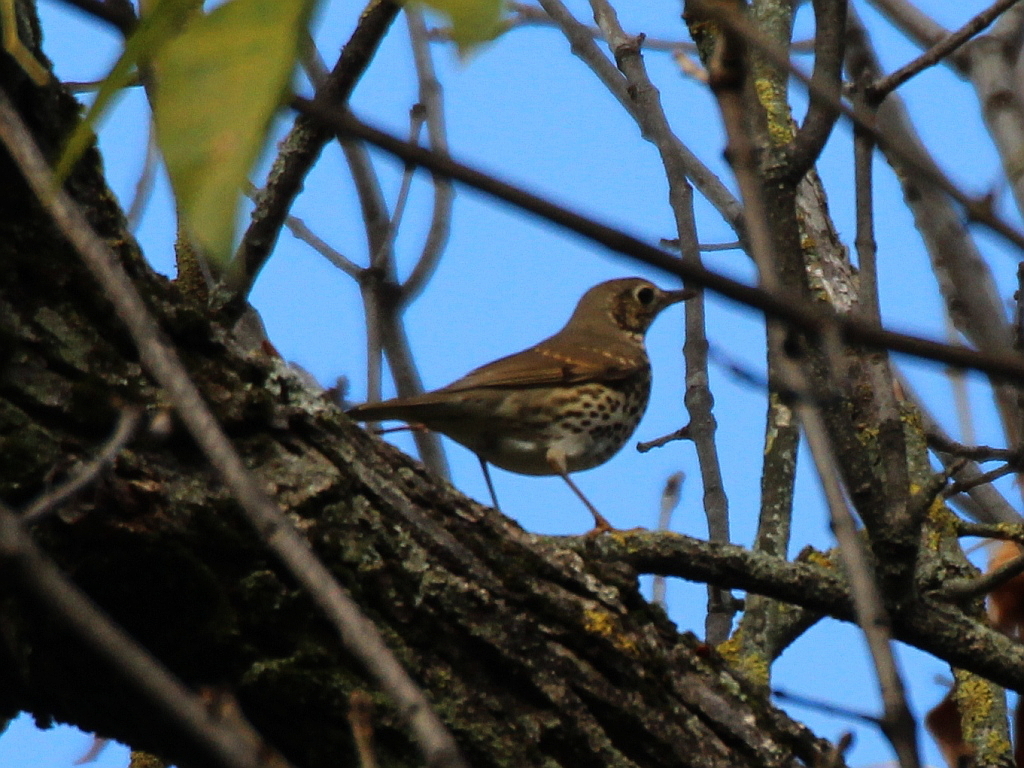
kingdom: Animalia
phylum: Chordata
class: Aves
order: Passeriformes
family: Turdidae
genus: Turdus
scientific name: Turdus philomelos
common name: Song thrush
